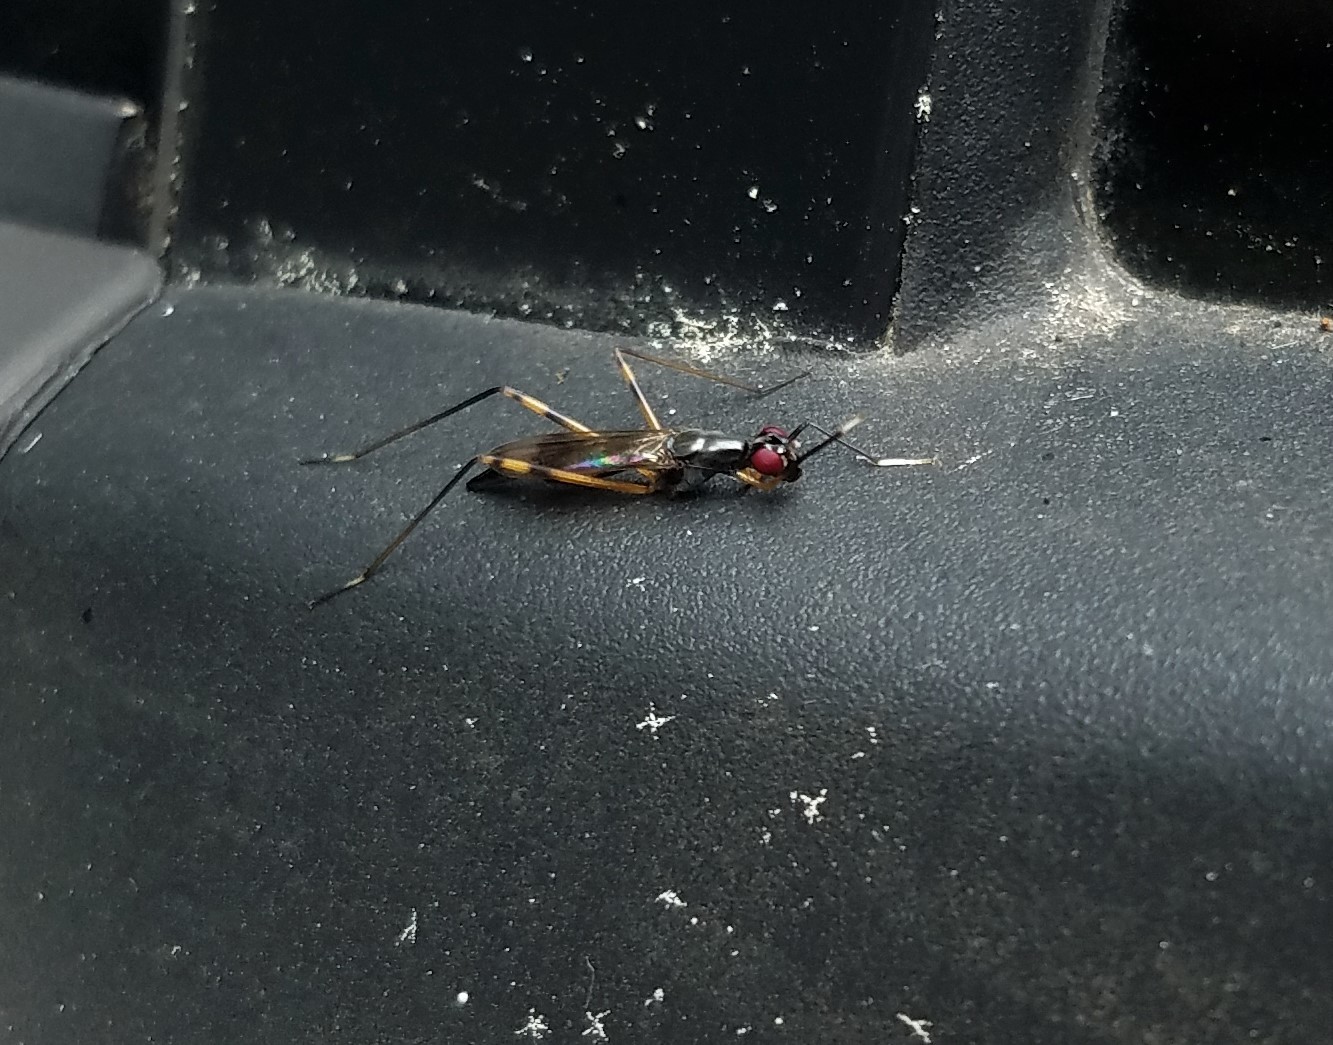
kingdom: Animalia
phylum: Arthropoda
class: Insecta
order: Diptera
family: Micropezidae
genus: Rainieria
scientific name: Rainieria antennaepes
